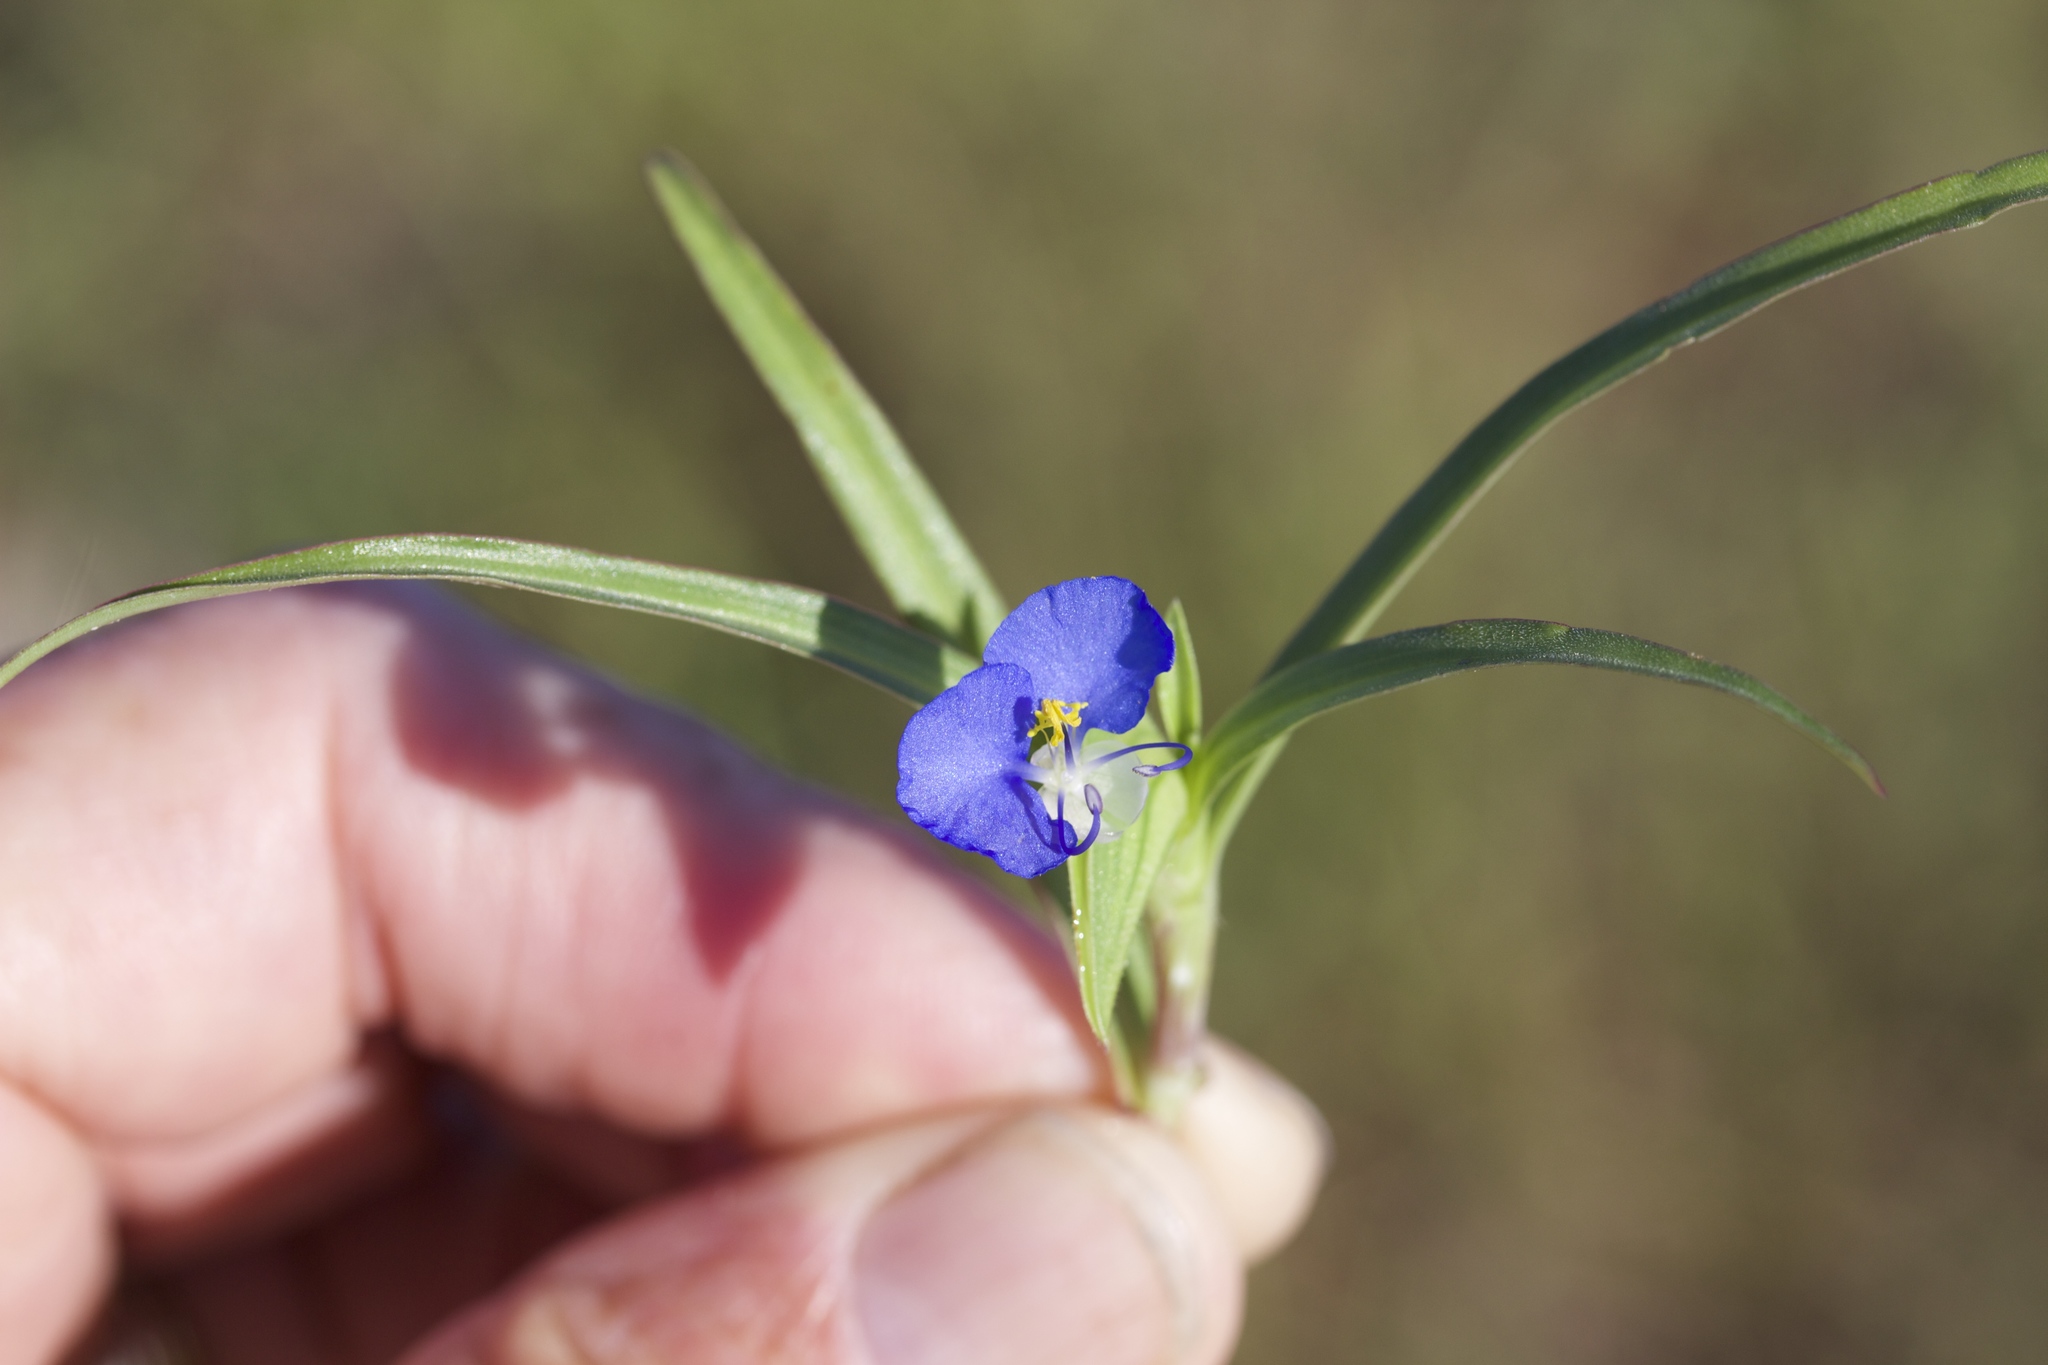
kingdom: Plantae
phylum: Tracheophyta
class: Liliopsida
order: Commelinales
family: Commelinaceae
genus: Commelina
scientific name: Commelina erecta
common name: Blousel blommetjie
